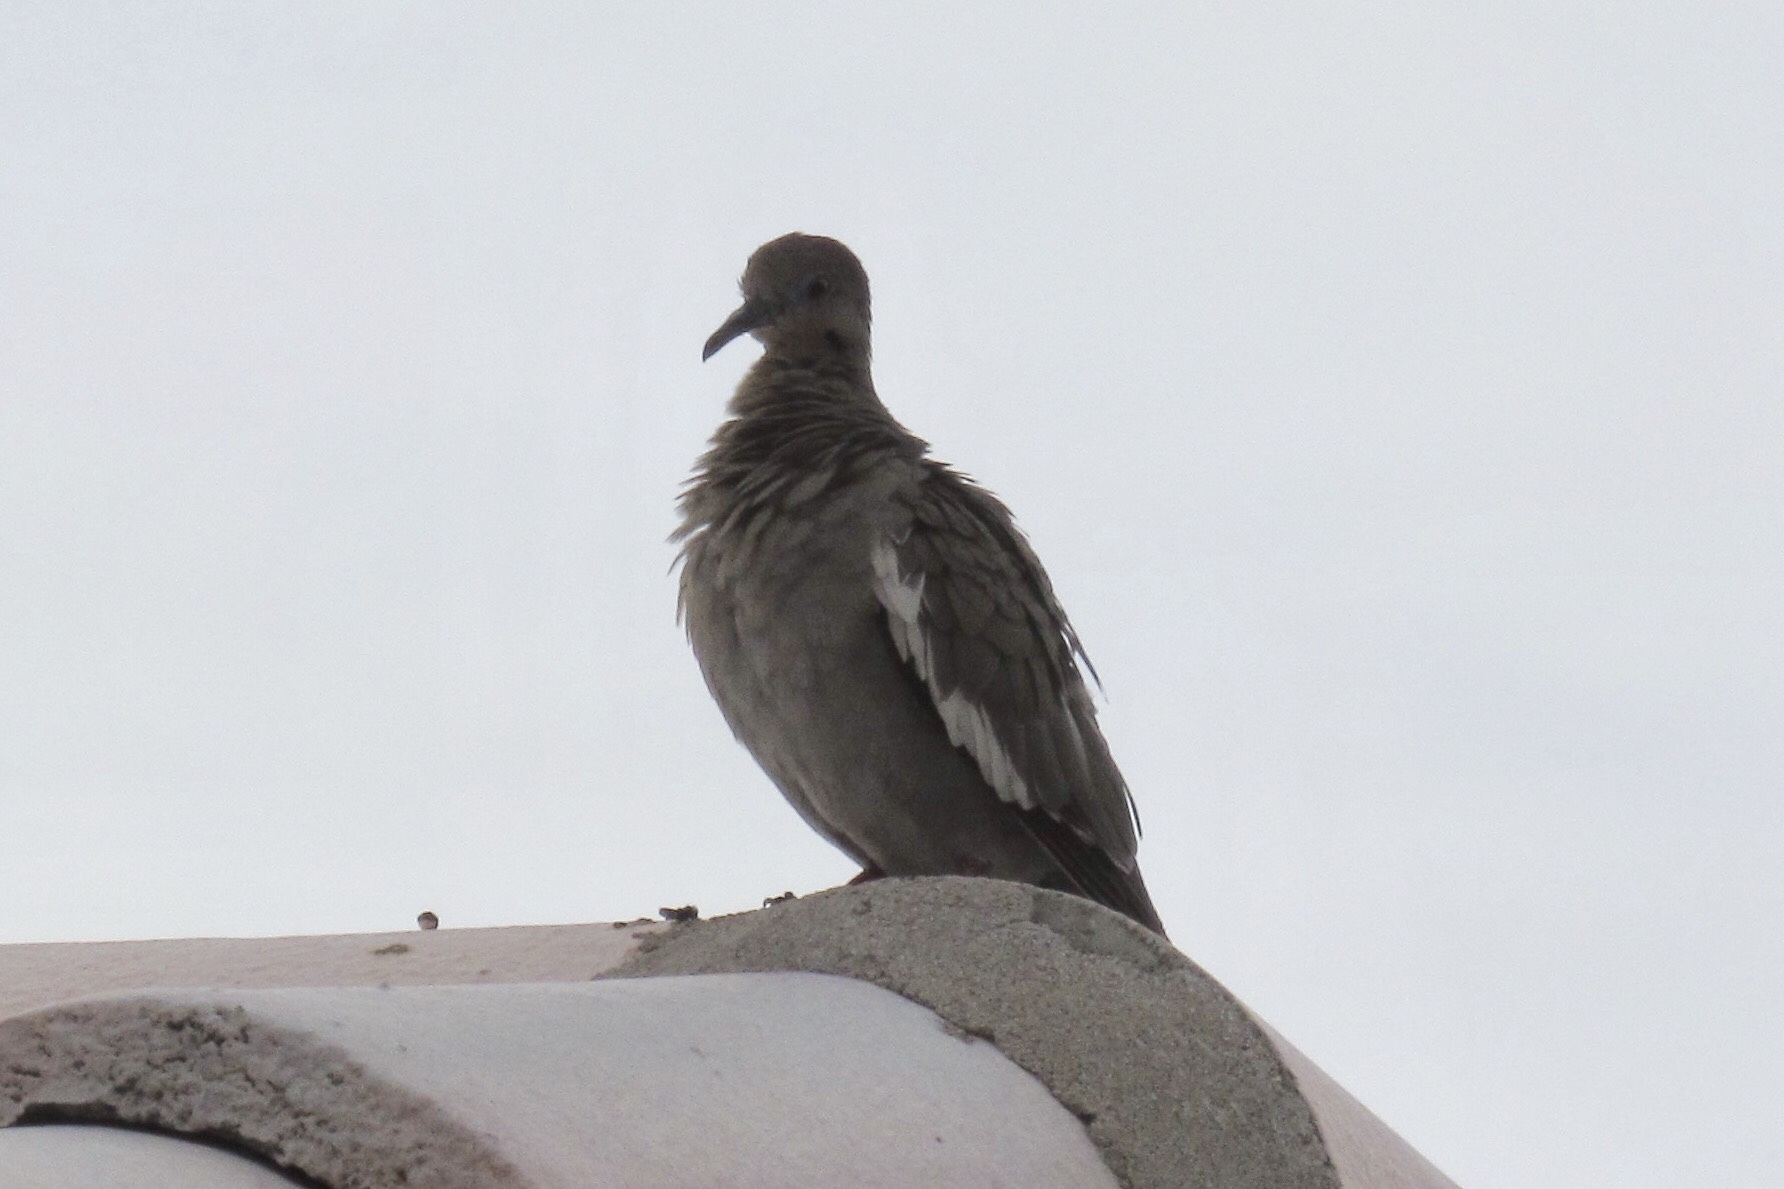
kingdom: Animalia
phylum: Chordata
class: Aves
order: Columbiformes
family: Columbidae
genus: Zenaida
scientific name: Zenaida asiatica
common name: White-winged dove
